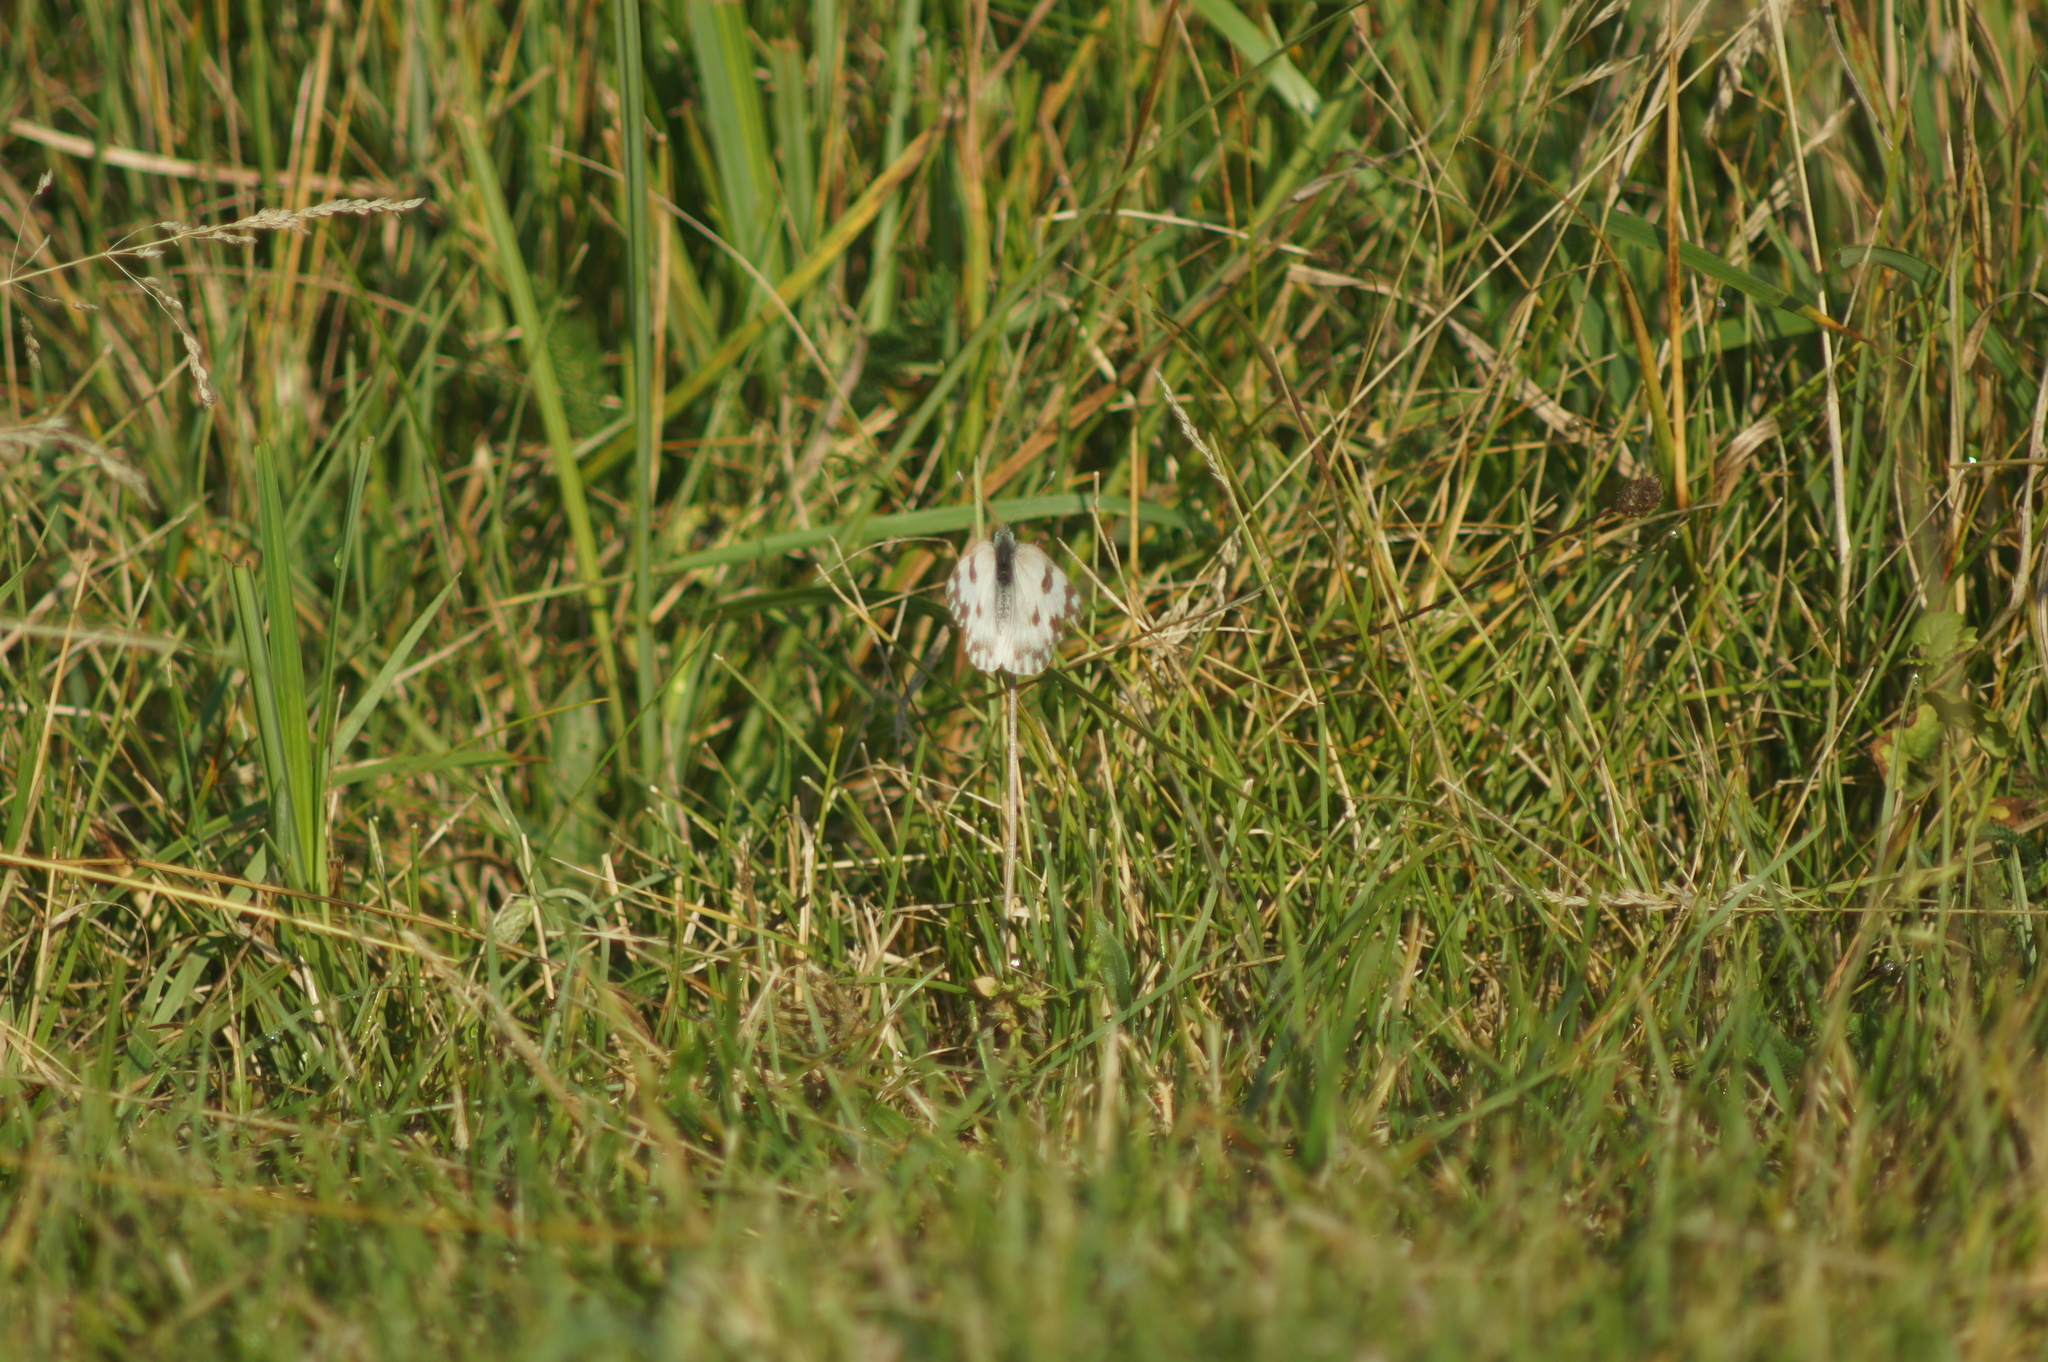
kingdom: Animalia
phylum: Arthropoda
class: Insecta
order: Lepidoptera
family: Pieridae
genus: Pontia
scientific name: Pontia edusa
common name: Eastern bath white
